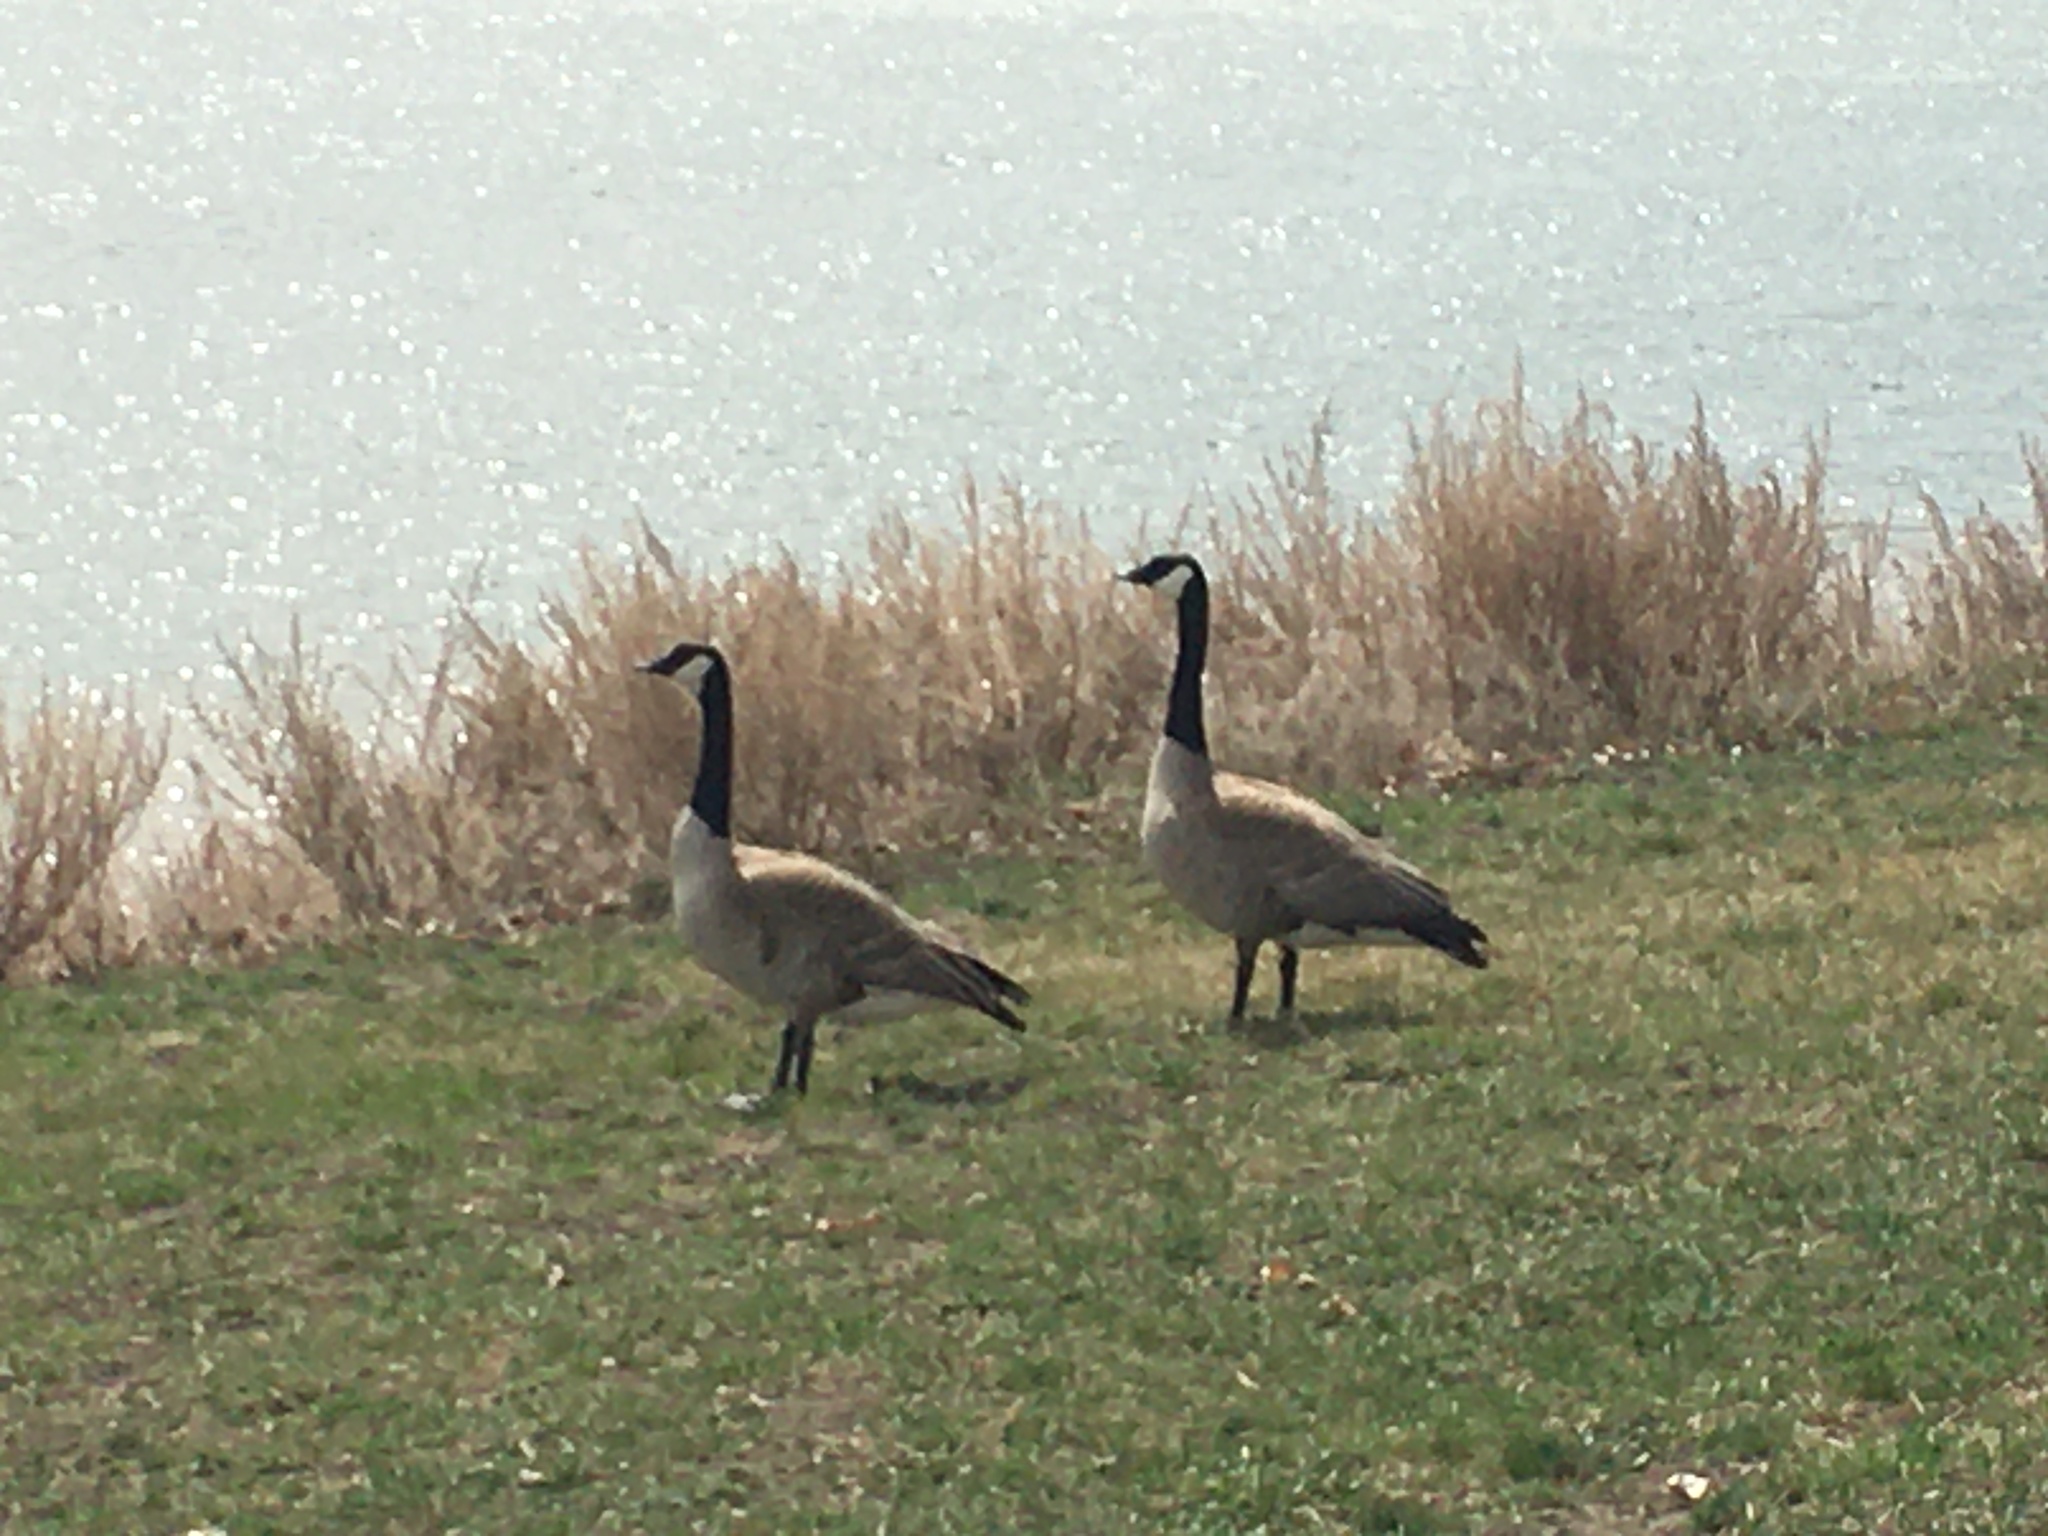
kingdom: Animalia
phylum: Chordata
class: Aves
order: Anseriformes
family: Anatidae
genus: Branta
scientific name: Branta canadensis
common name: Canada goose
